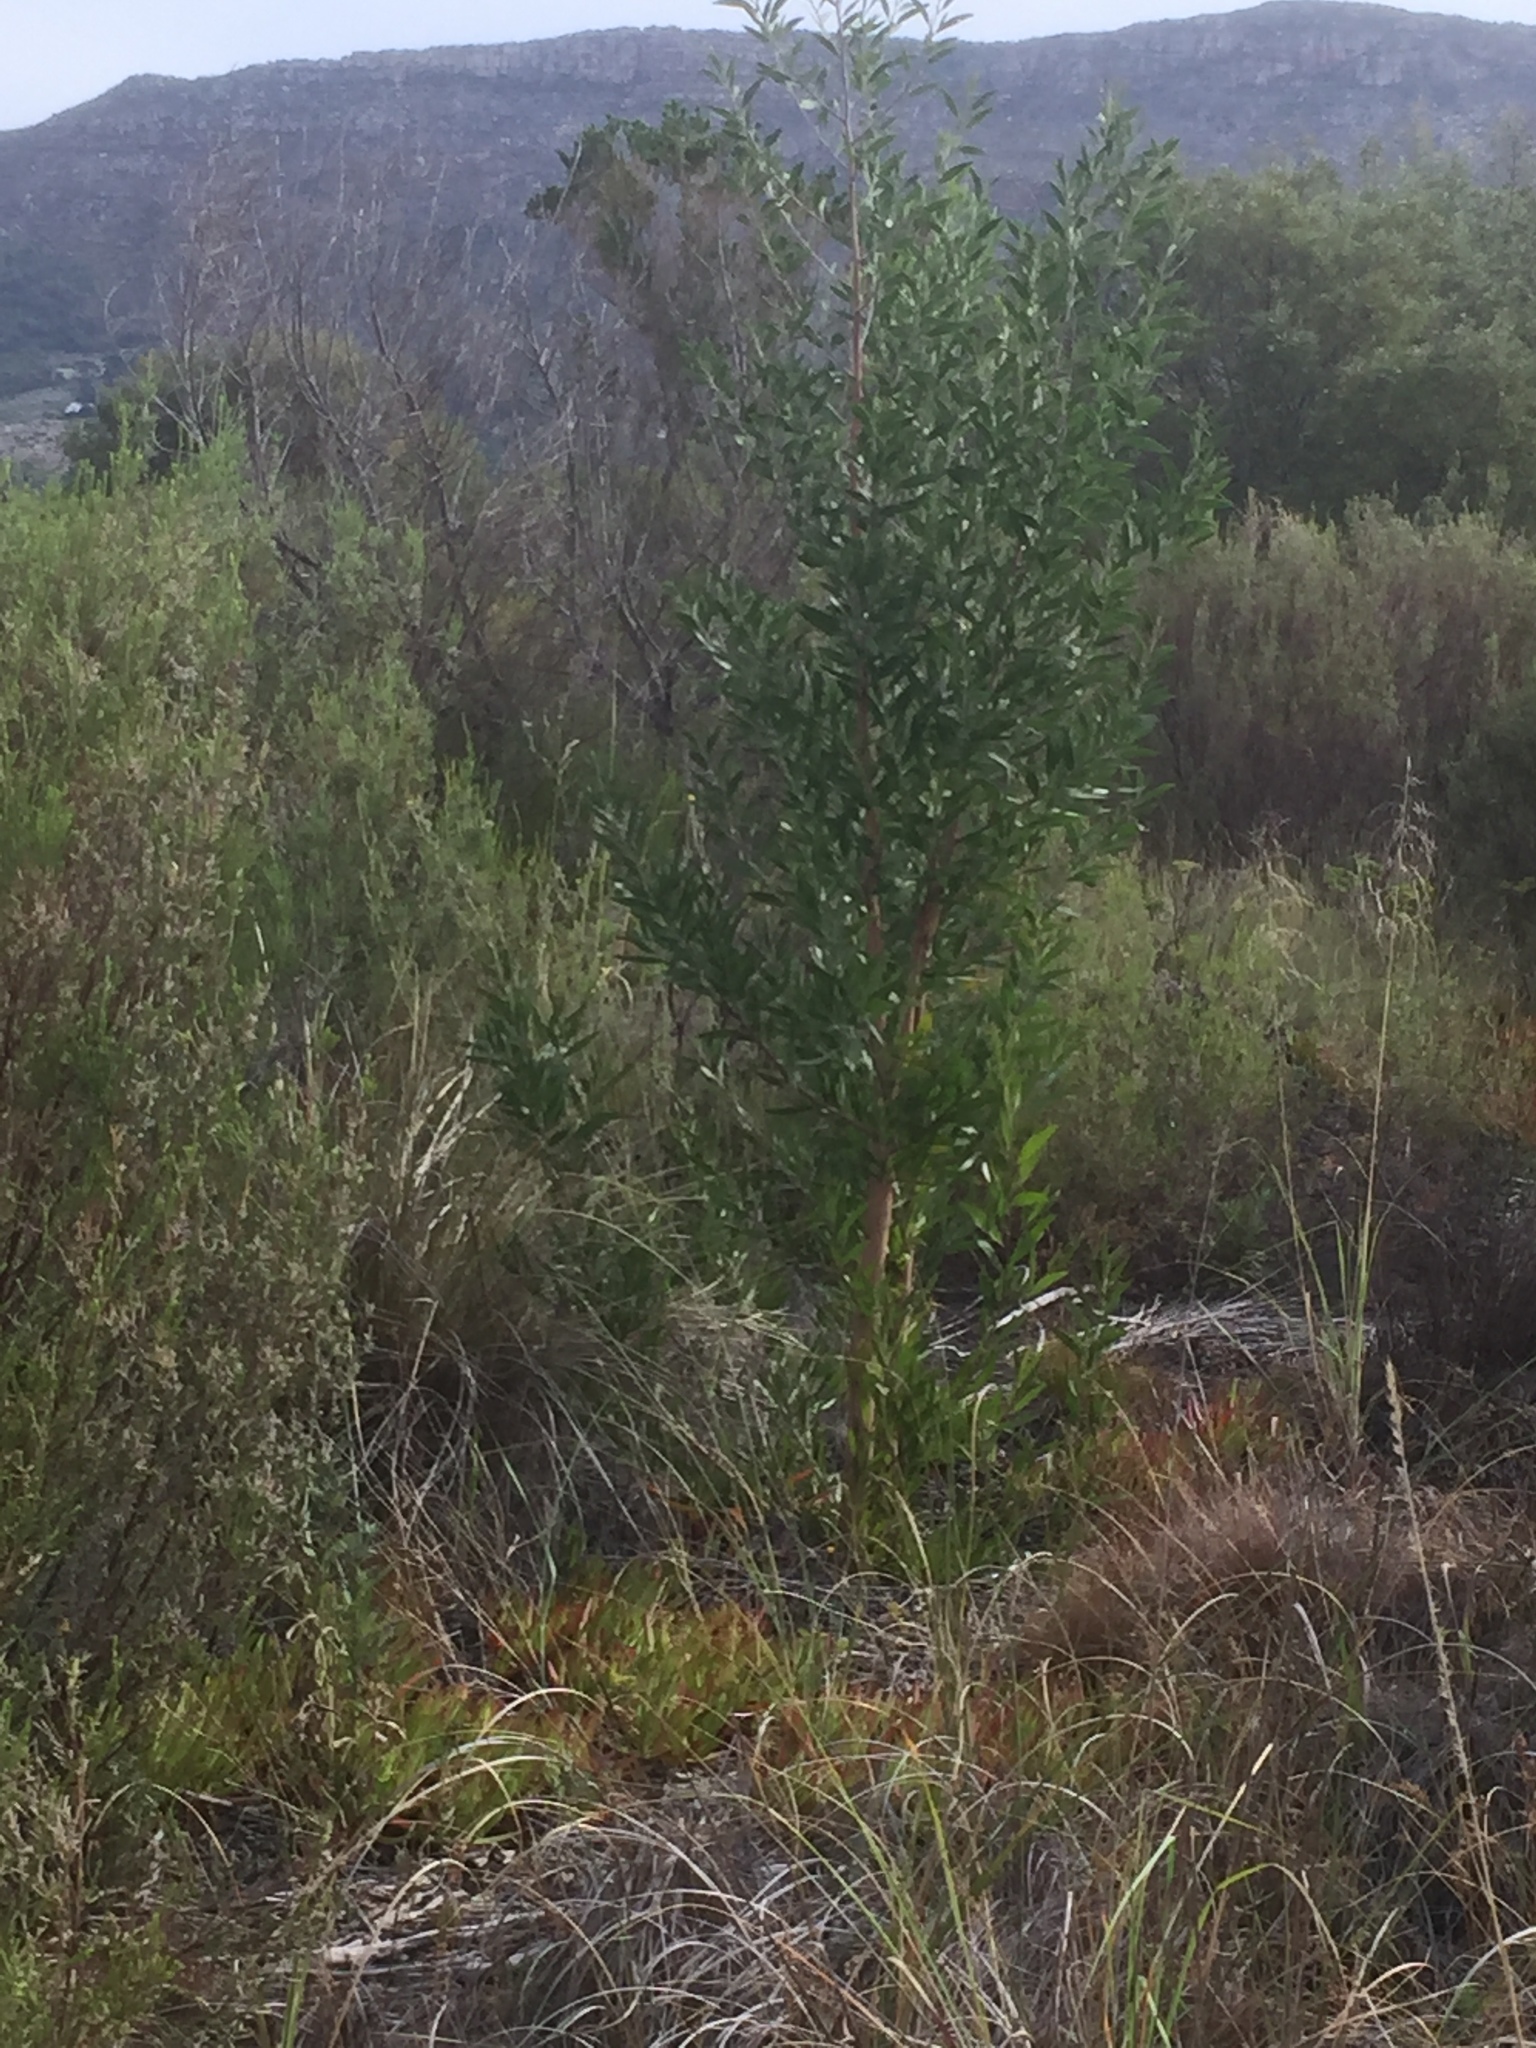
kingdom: Plantae
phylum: Tracheophyta
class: Magnoliopsida
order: Fabales
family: Fabaceae
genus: Acacia
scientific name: Acacia melanoxylon
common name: Blackwood
